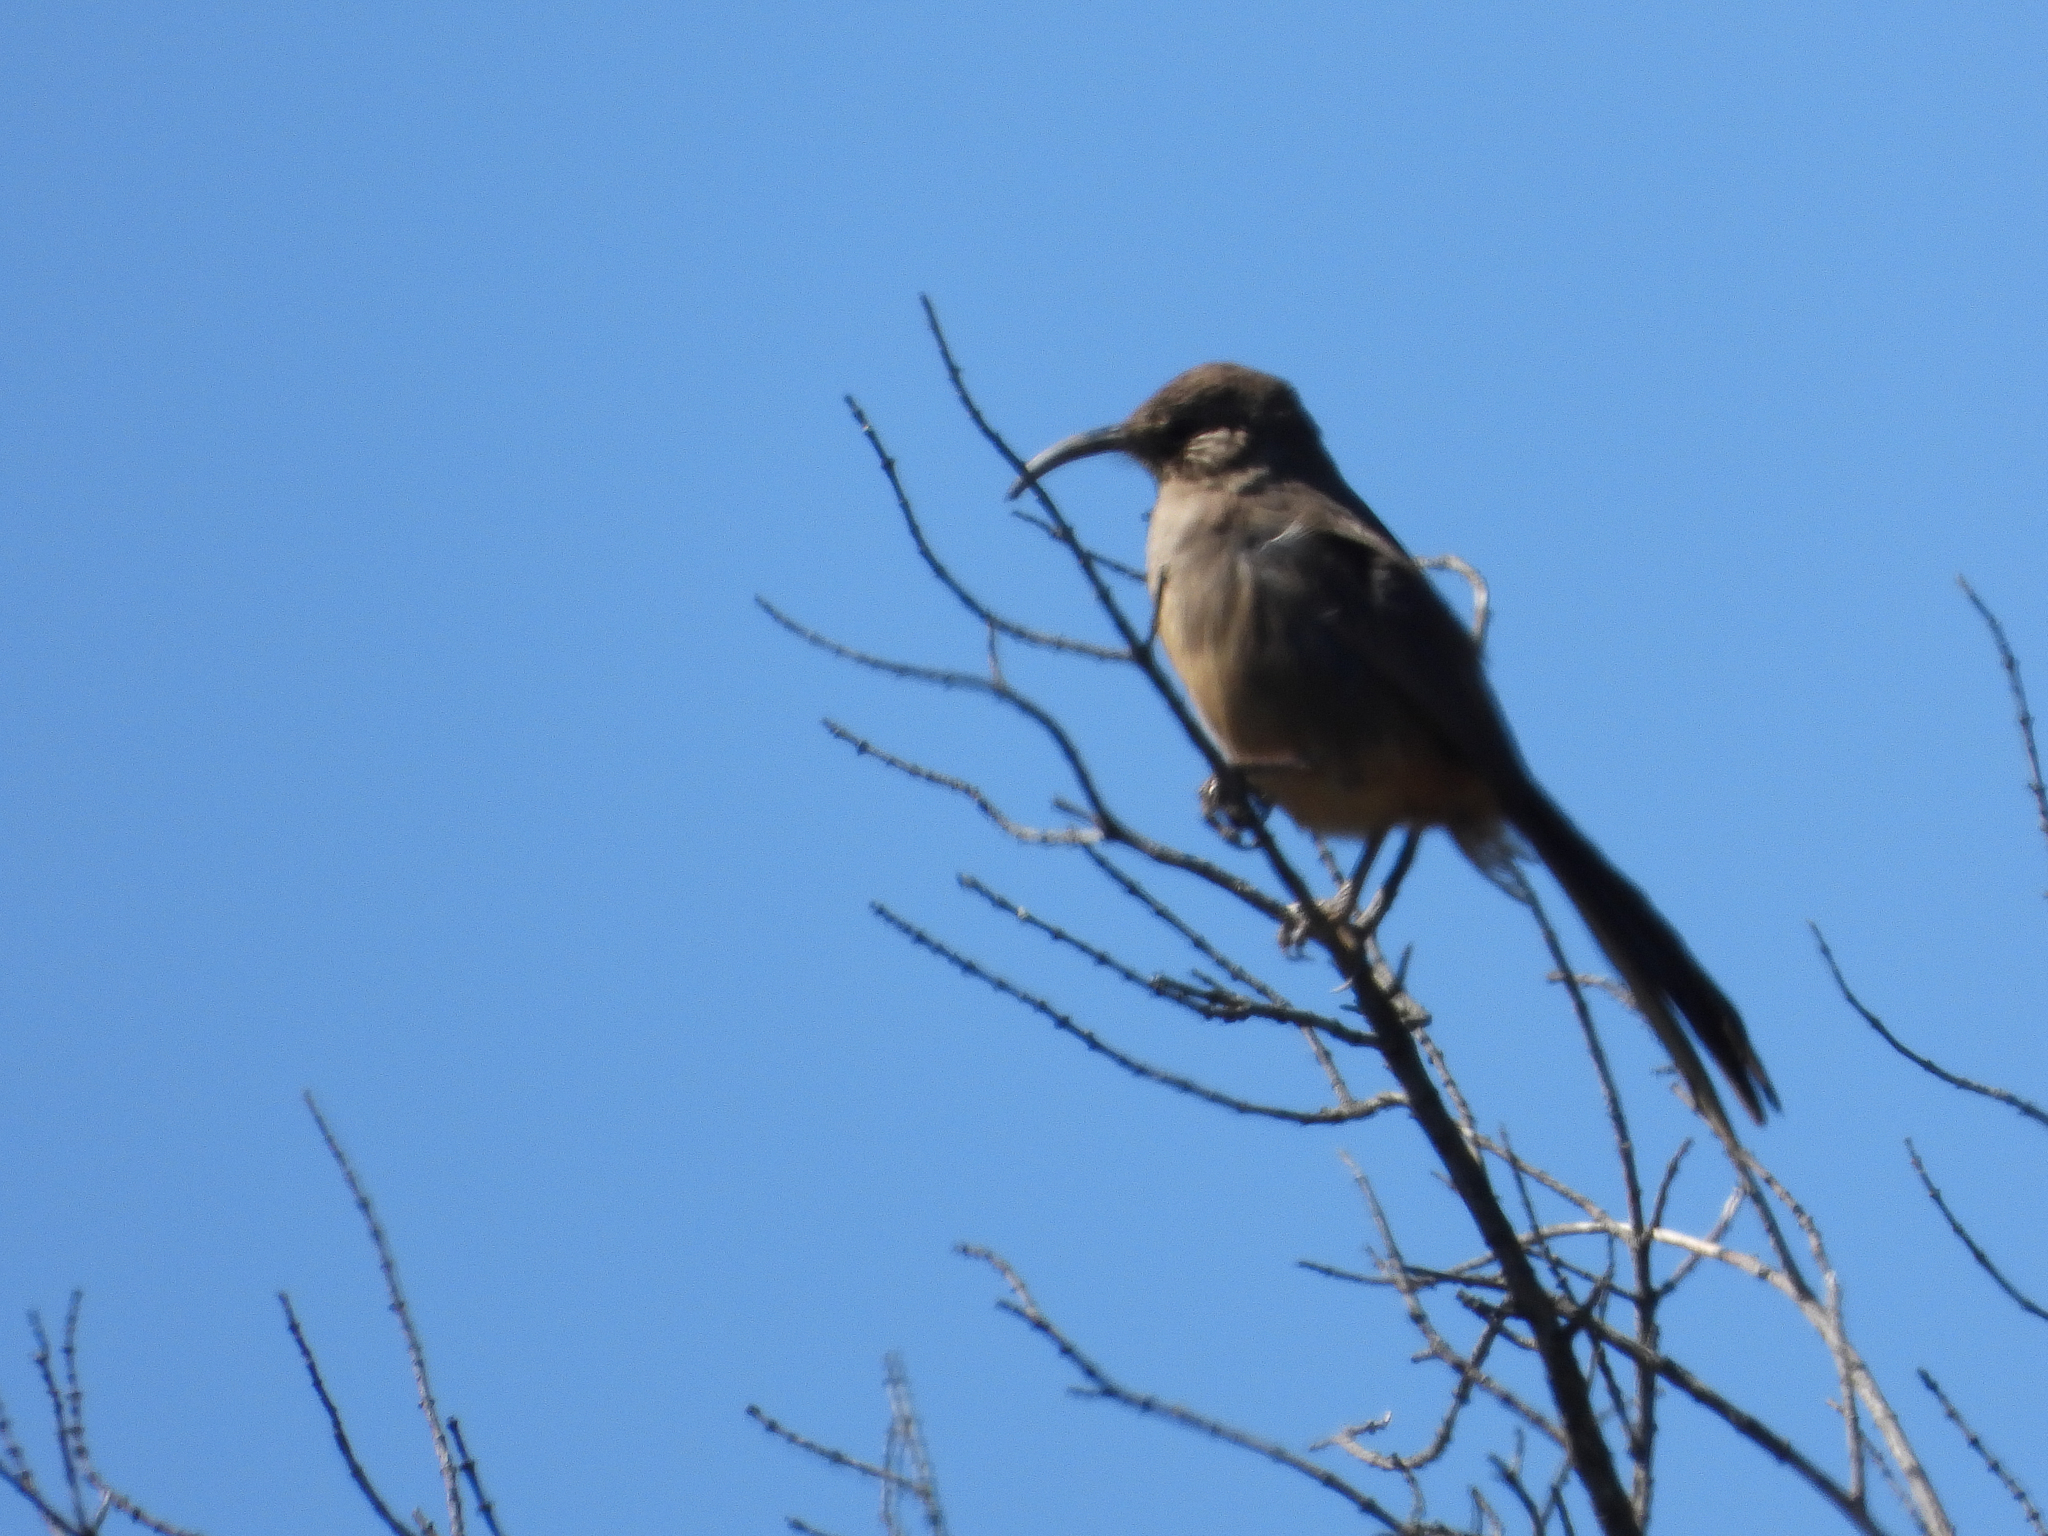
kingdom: Animalia
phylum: Chordata
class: Aves
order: Passeriformes
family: Mimidae
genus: Toxostoma
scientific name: Toxostoma redivivum
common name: California thrasher
